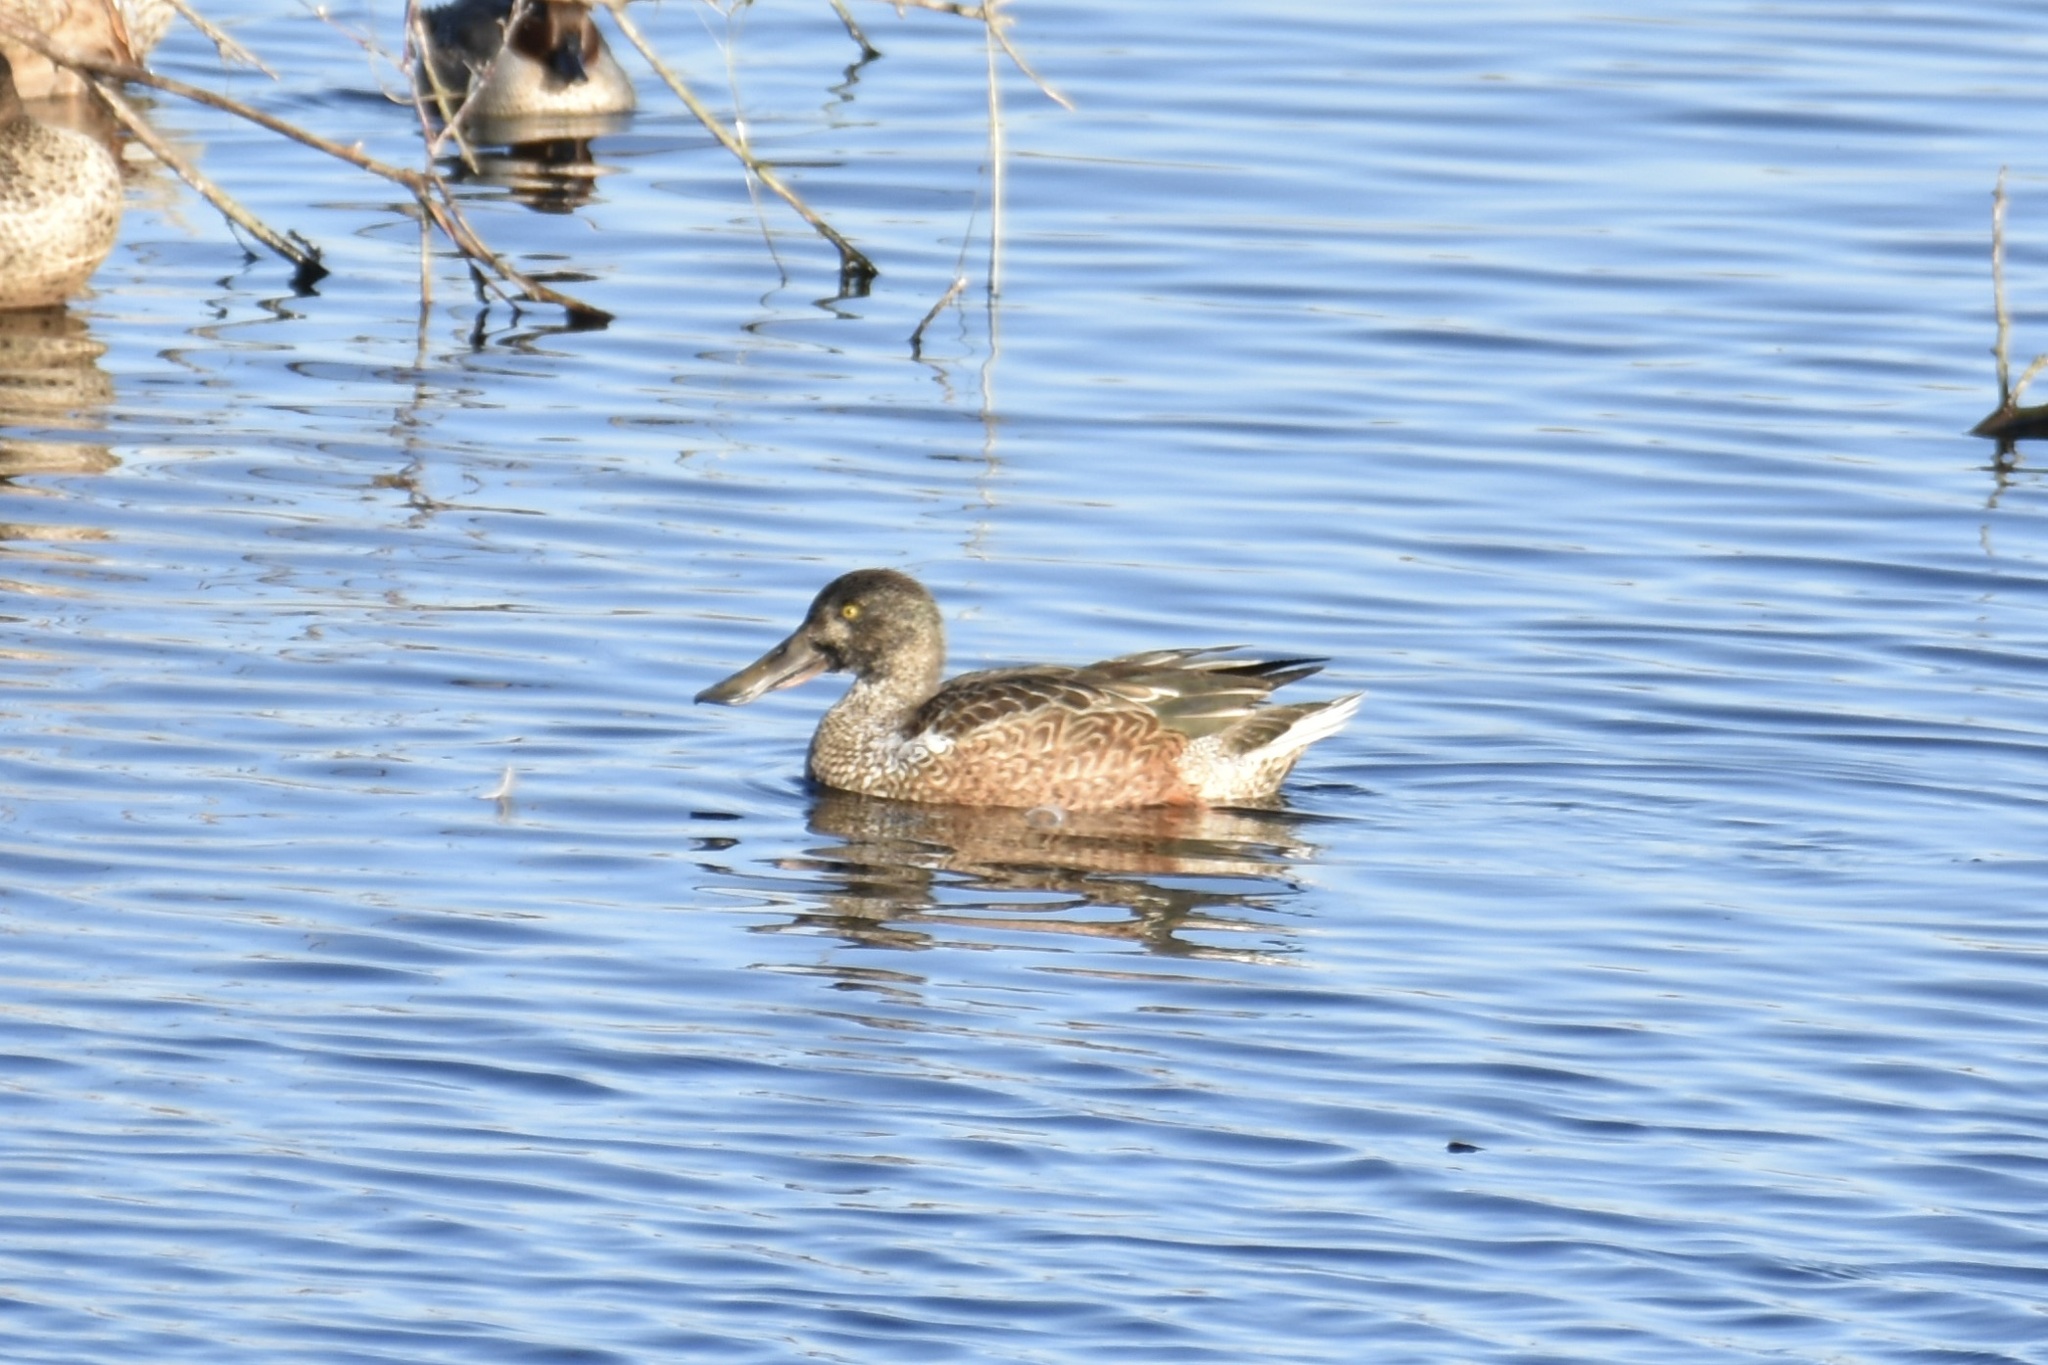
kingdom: Animalia
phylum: Chordata
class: Aves
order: Anseriformes
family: Anatidae
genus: Spatula
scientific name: Spatula clypeata
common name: Northern shoveler
